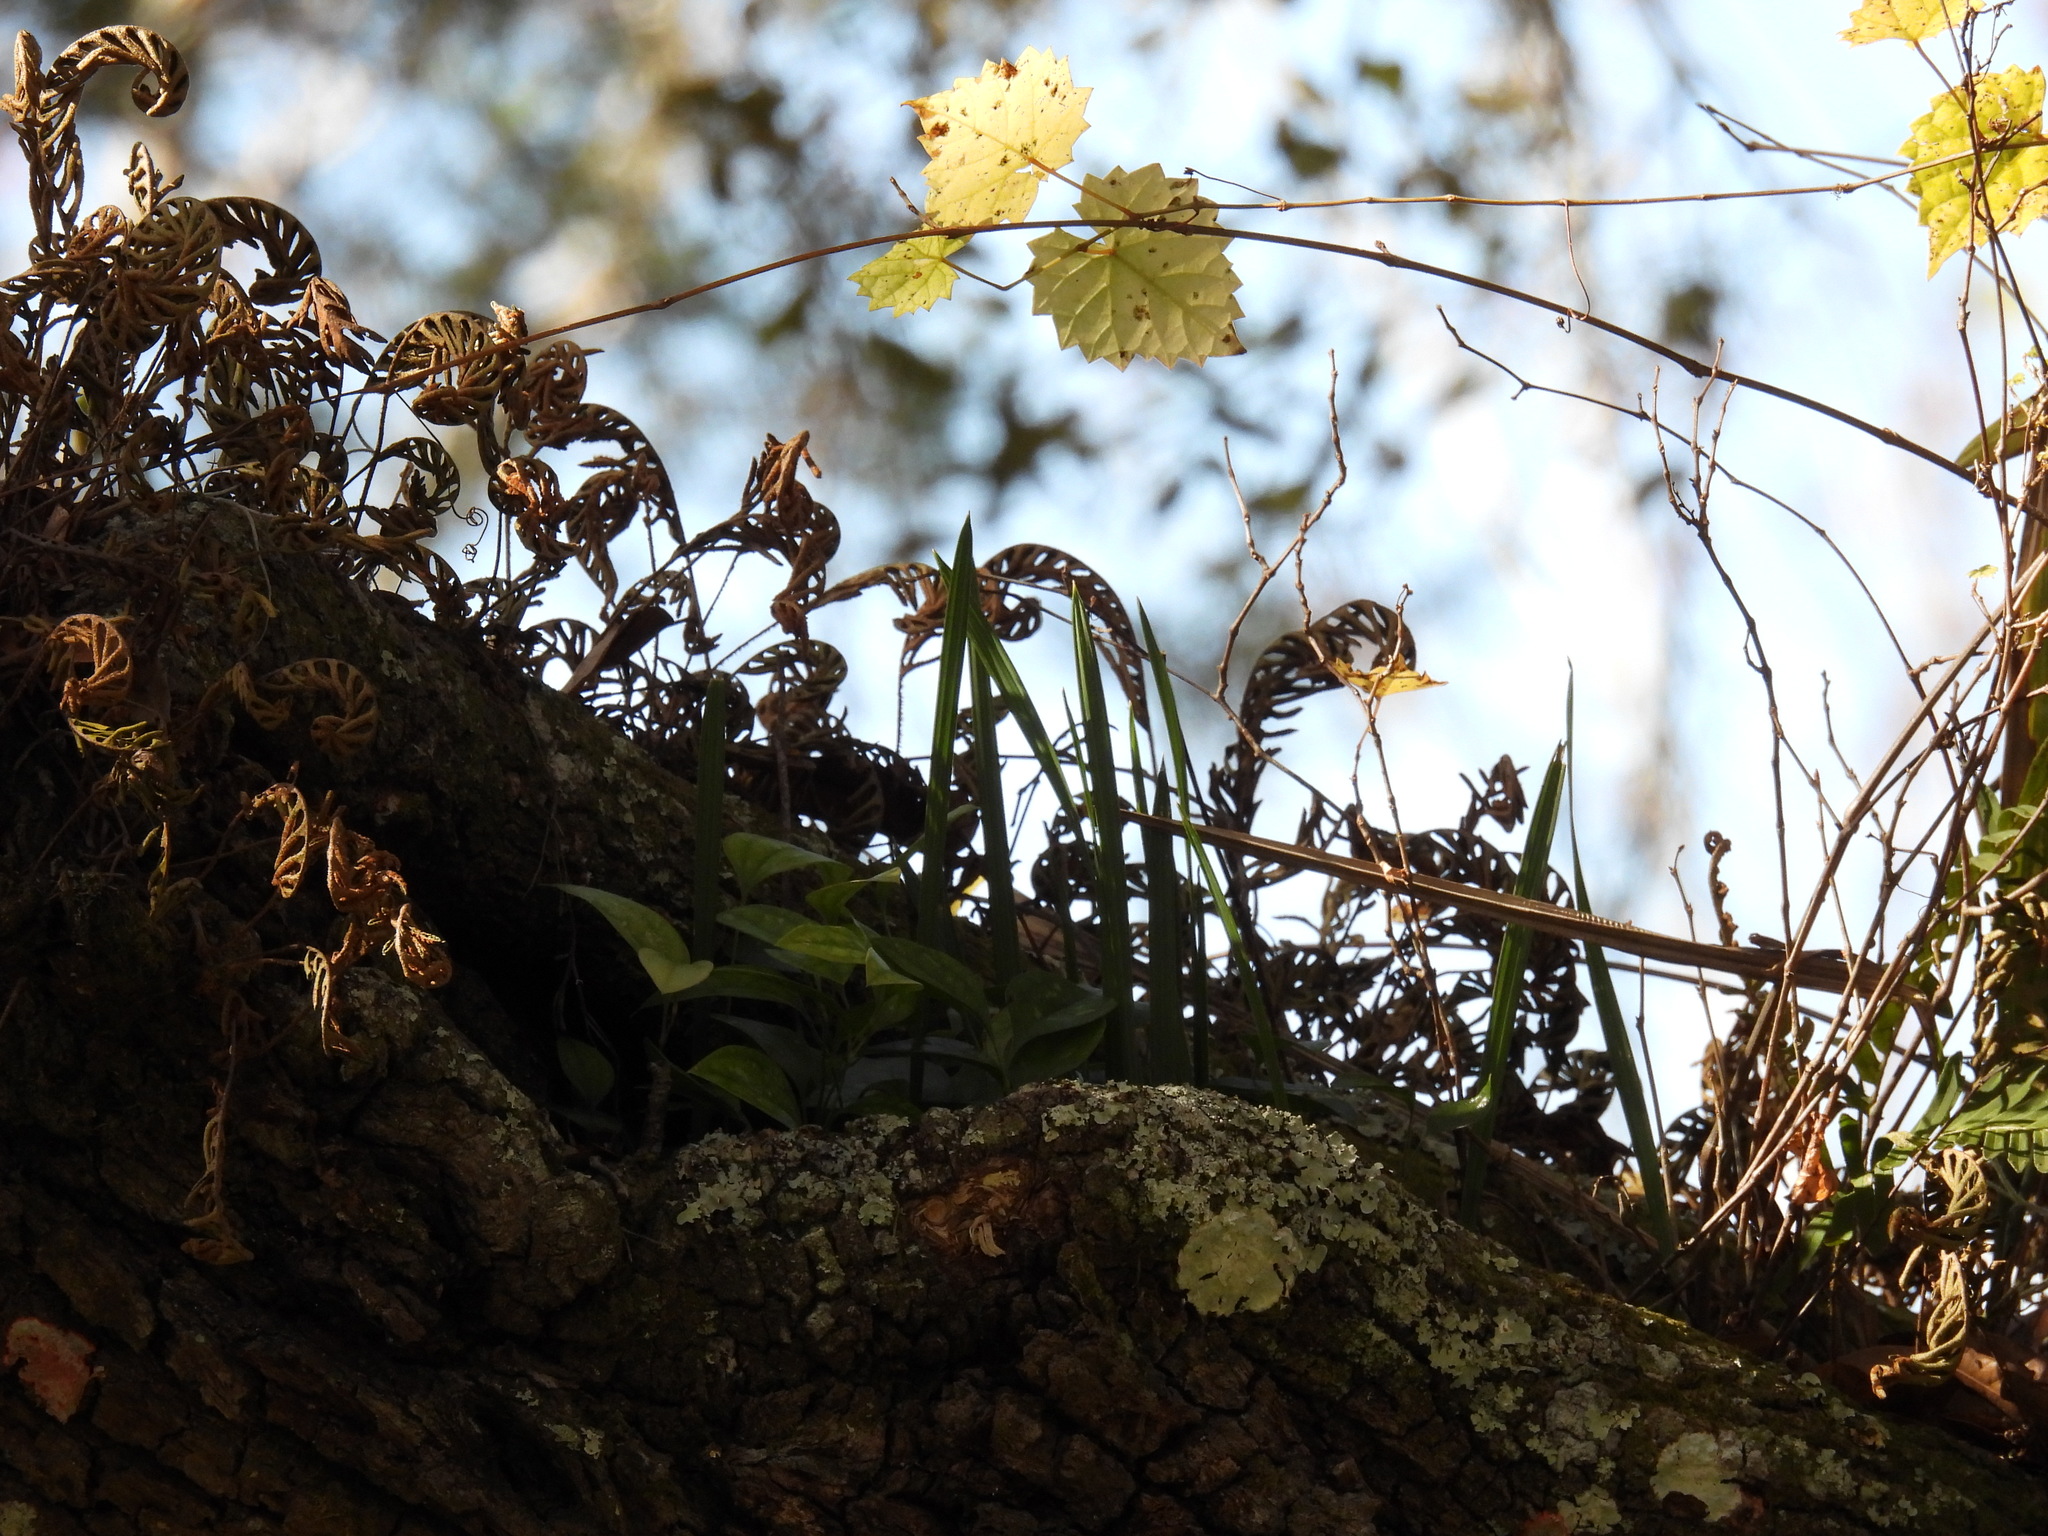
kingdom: Plantae
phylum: Tracheophyta
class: Polypodiopsida
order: Polypodiales
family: Polypodiaceae
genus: Pleopeltis
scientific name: Pleopeltis michauxiana
